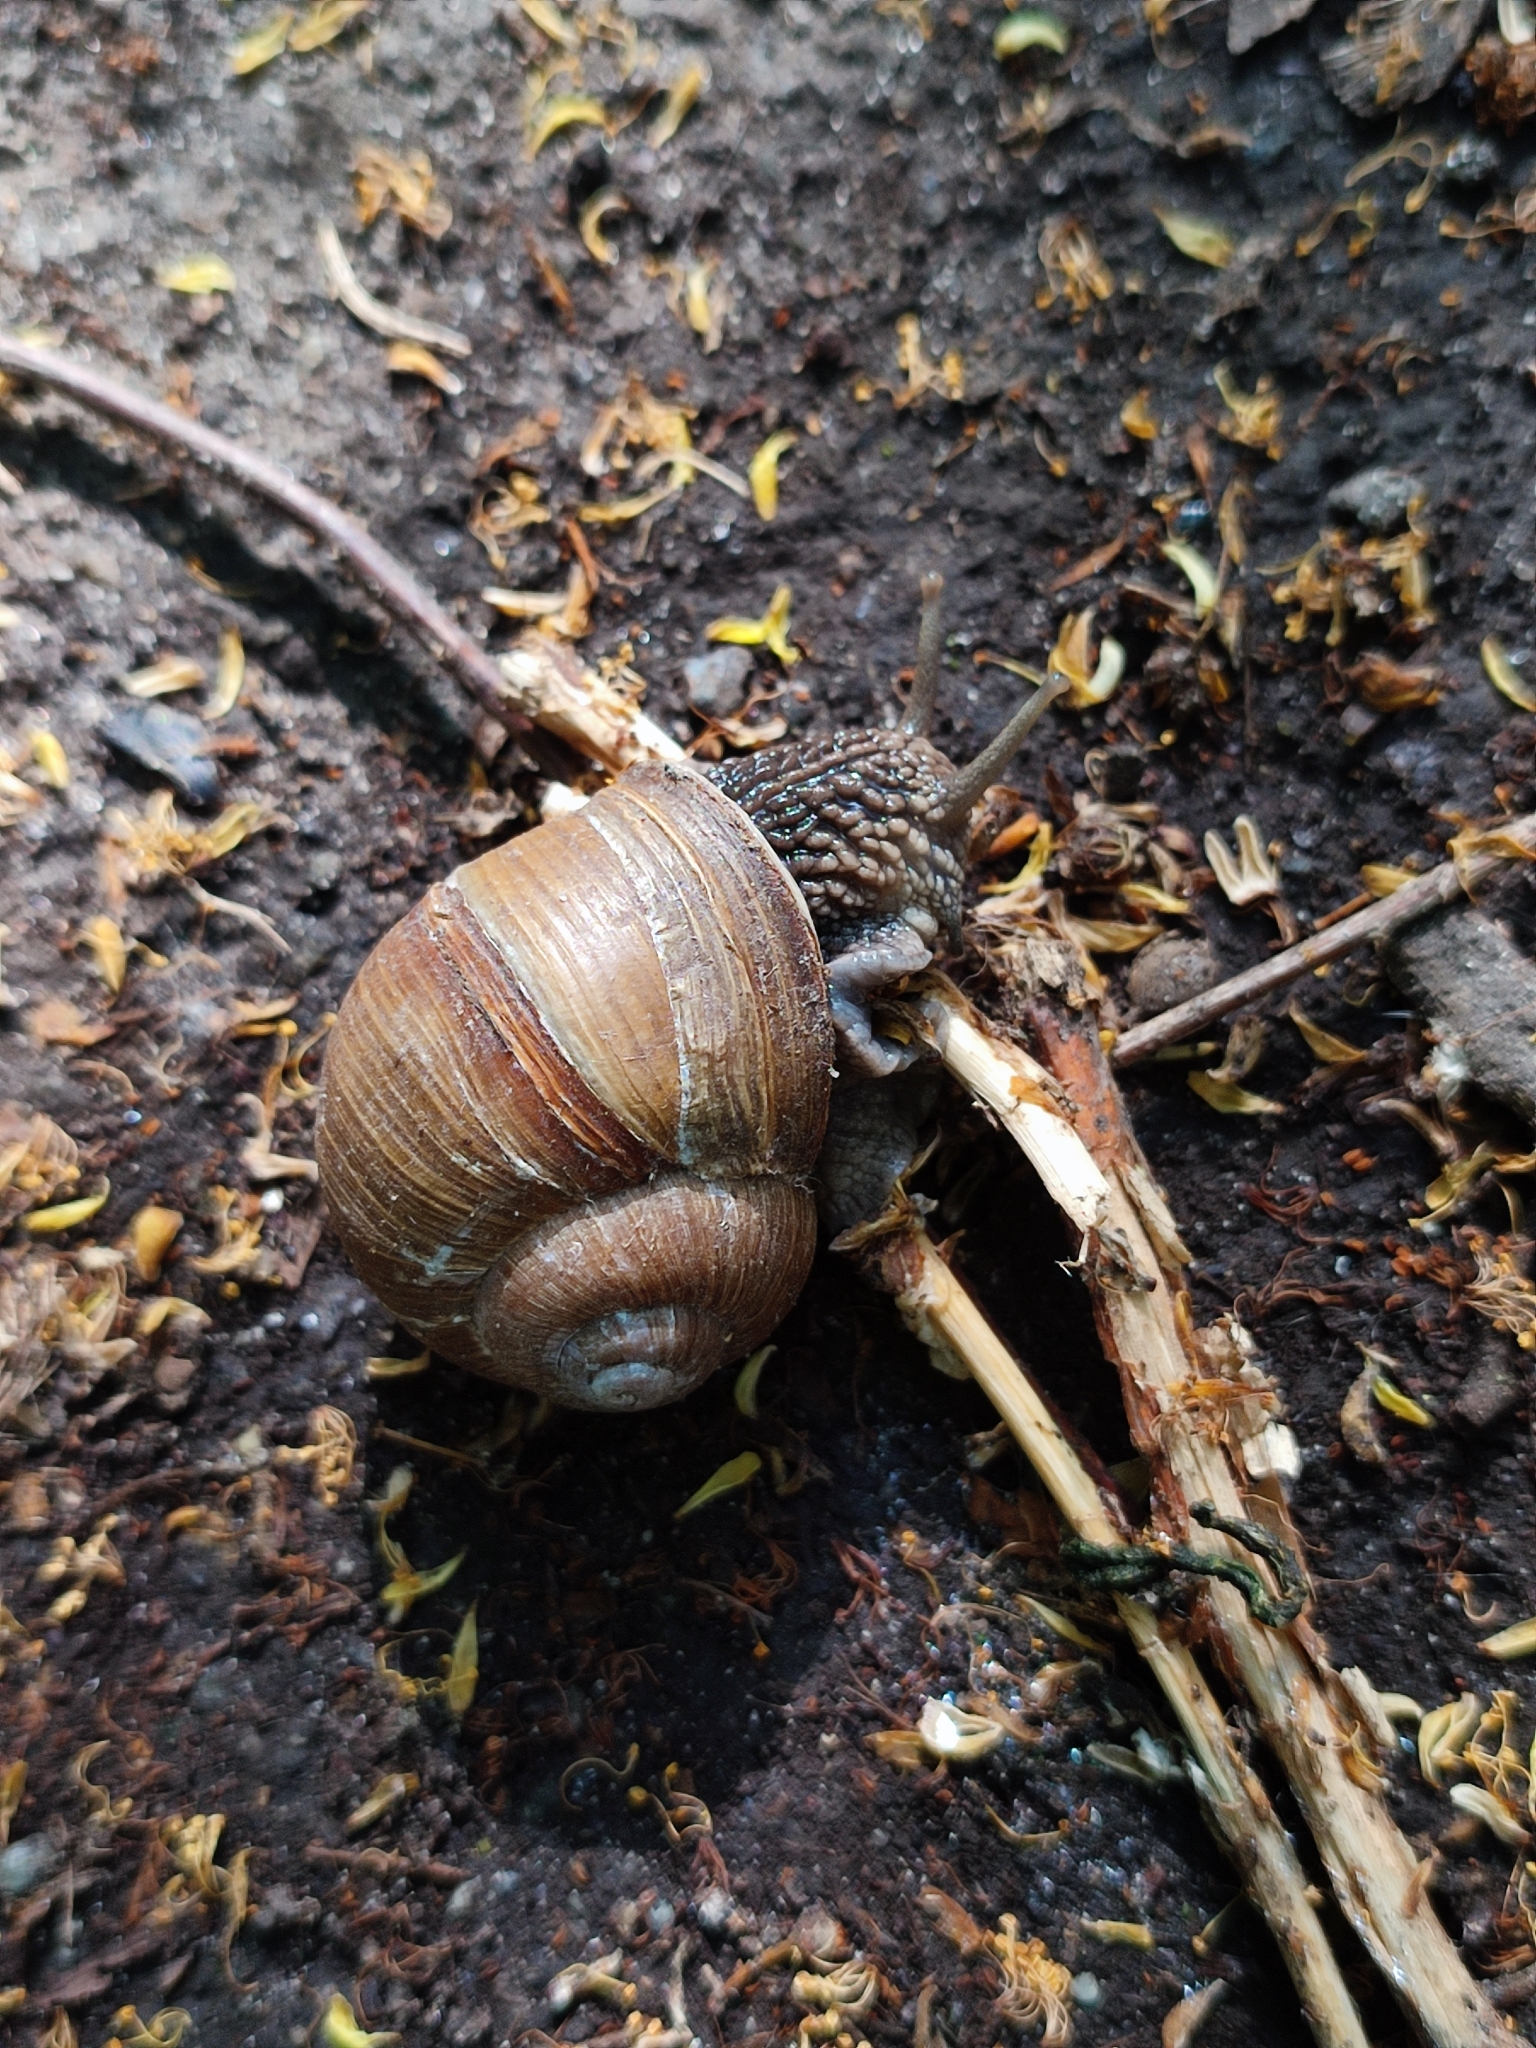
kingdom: Animalia
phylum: Mollusca
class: Gastropoda
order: Stylommatophora
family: Helicidae
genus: Helix
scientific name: Helix pomatia
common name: Roman snail
